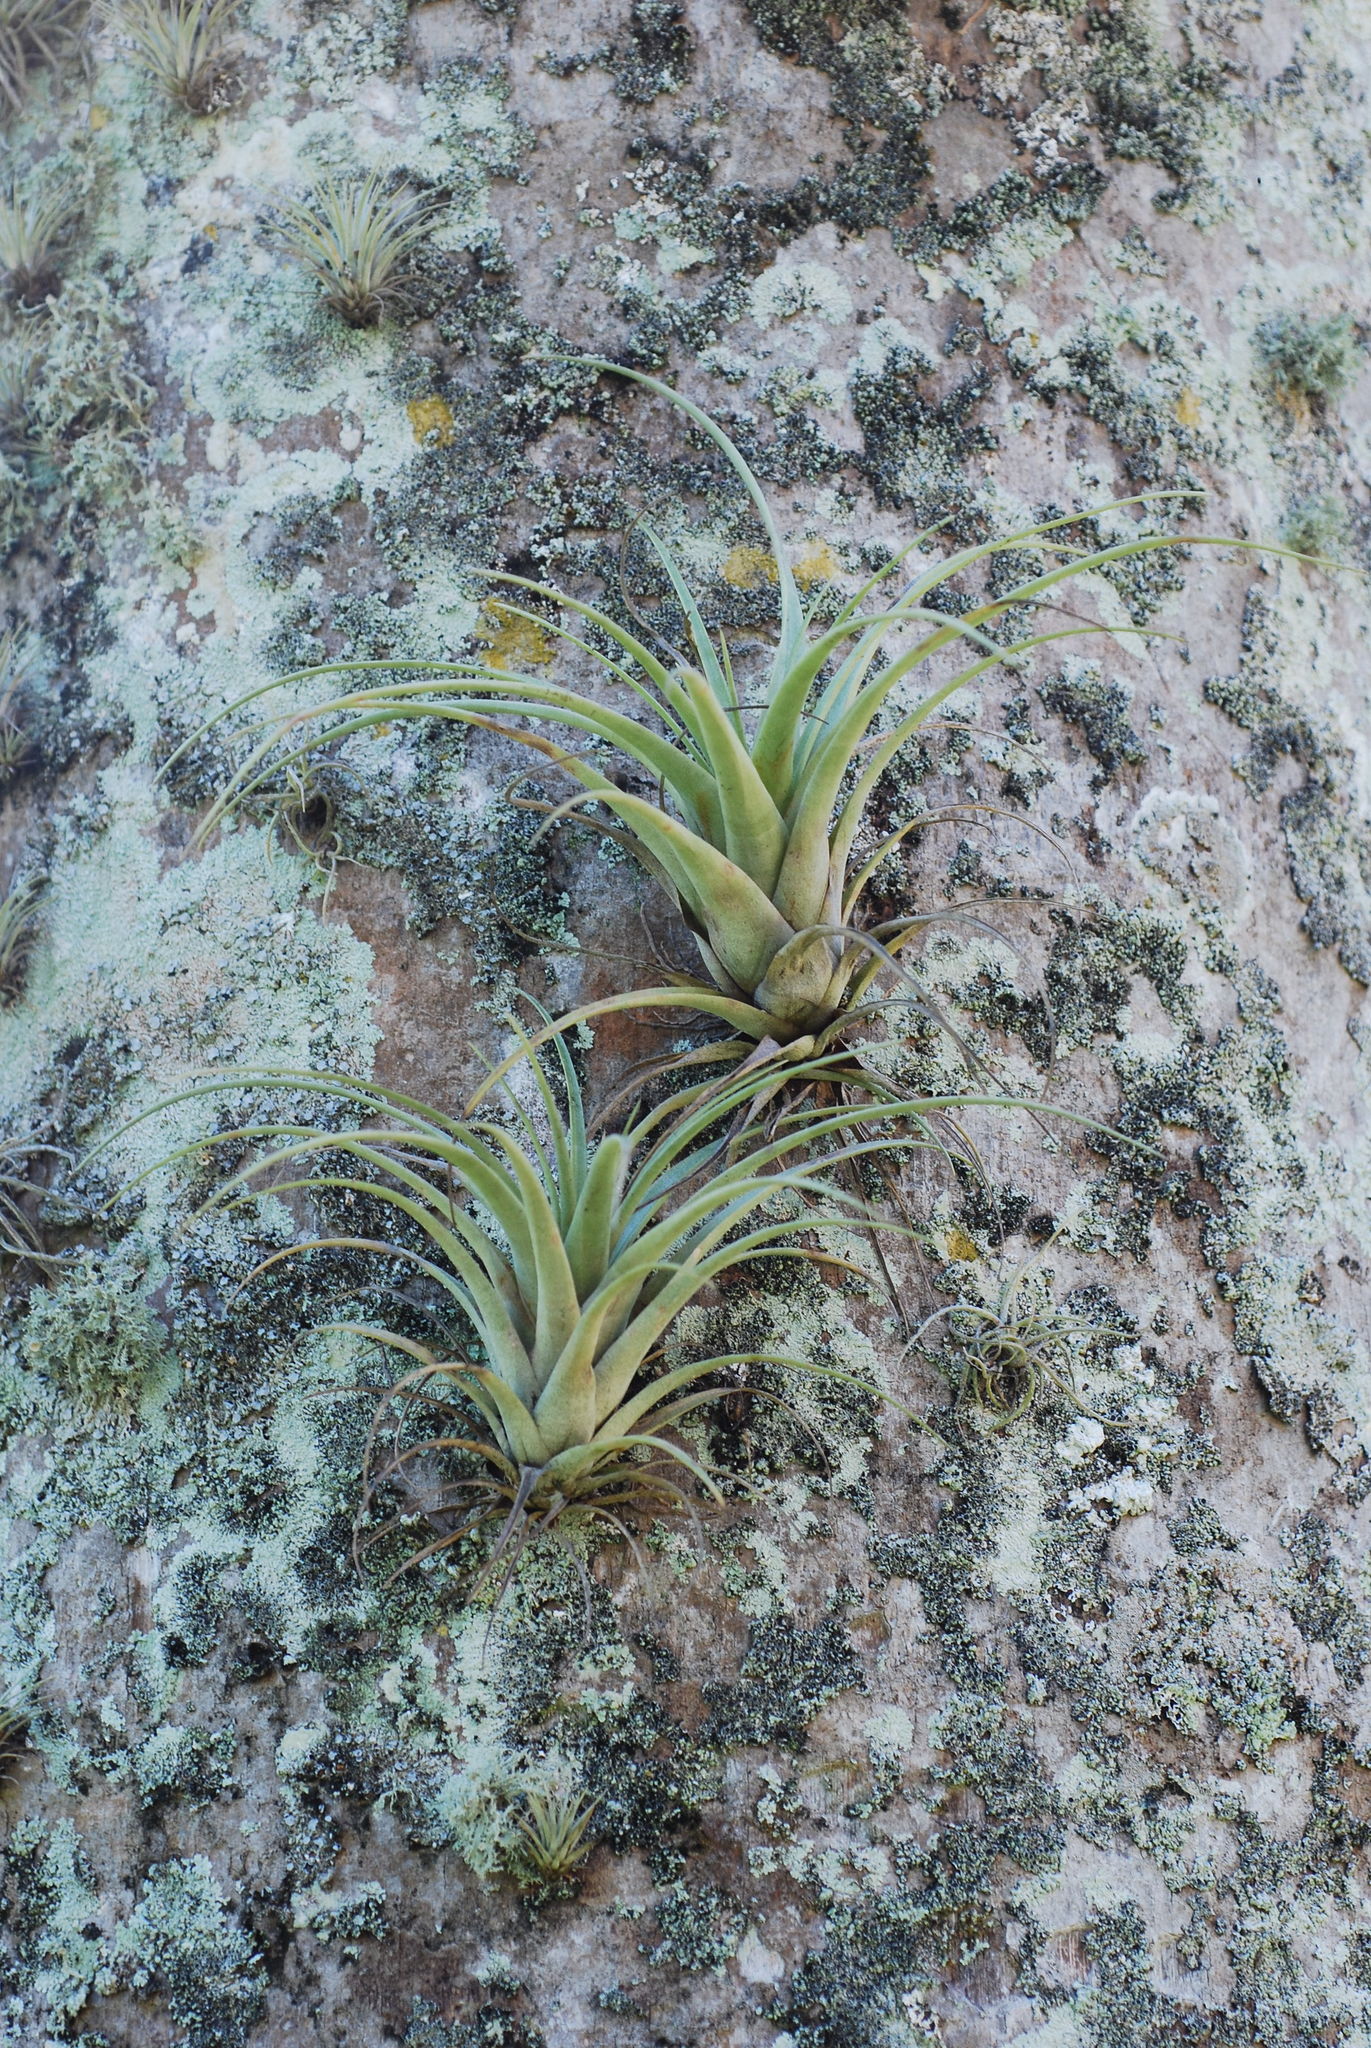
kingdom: Plantae
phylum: Tracheophyta
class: Liliopsida
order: Poales
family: Bromeliaceae
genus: Tillandsia
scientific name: Tillandsia utriculata
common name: Wild pine
